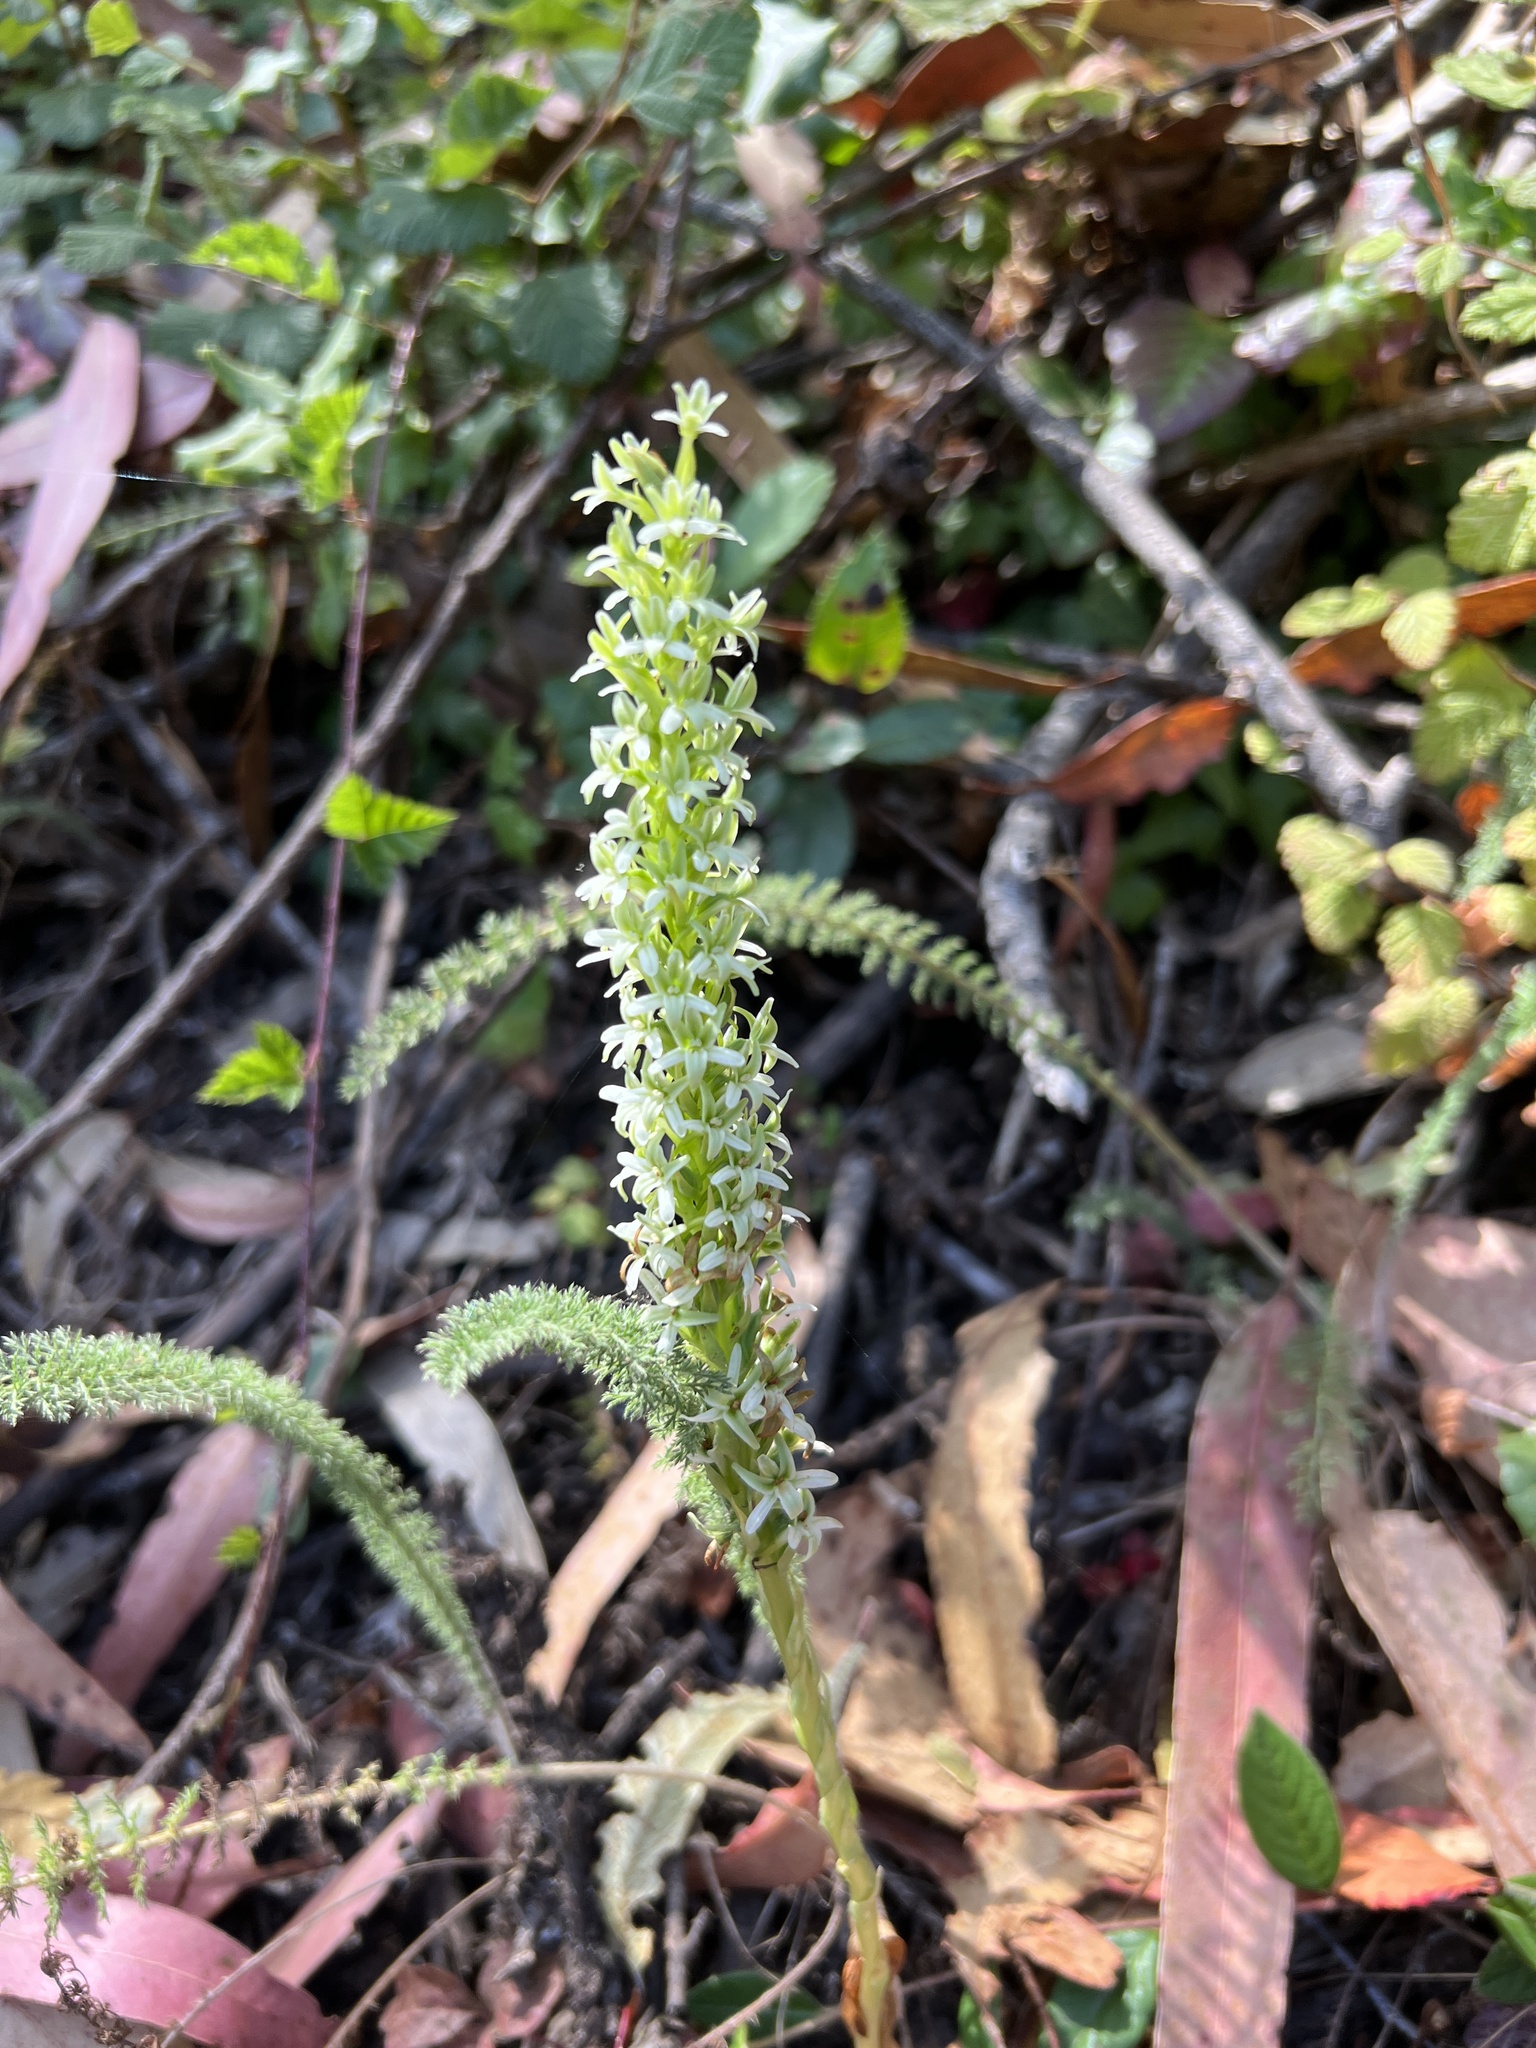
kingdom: Plantae
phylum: Tracheophyta
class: Liliopsida
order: Asparagales
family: Orchidaceae
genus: Platanthera
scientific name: Platanthera elegans
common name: Coast piperia
